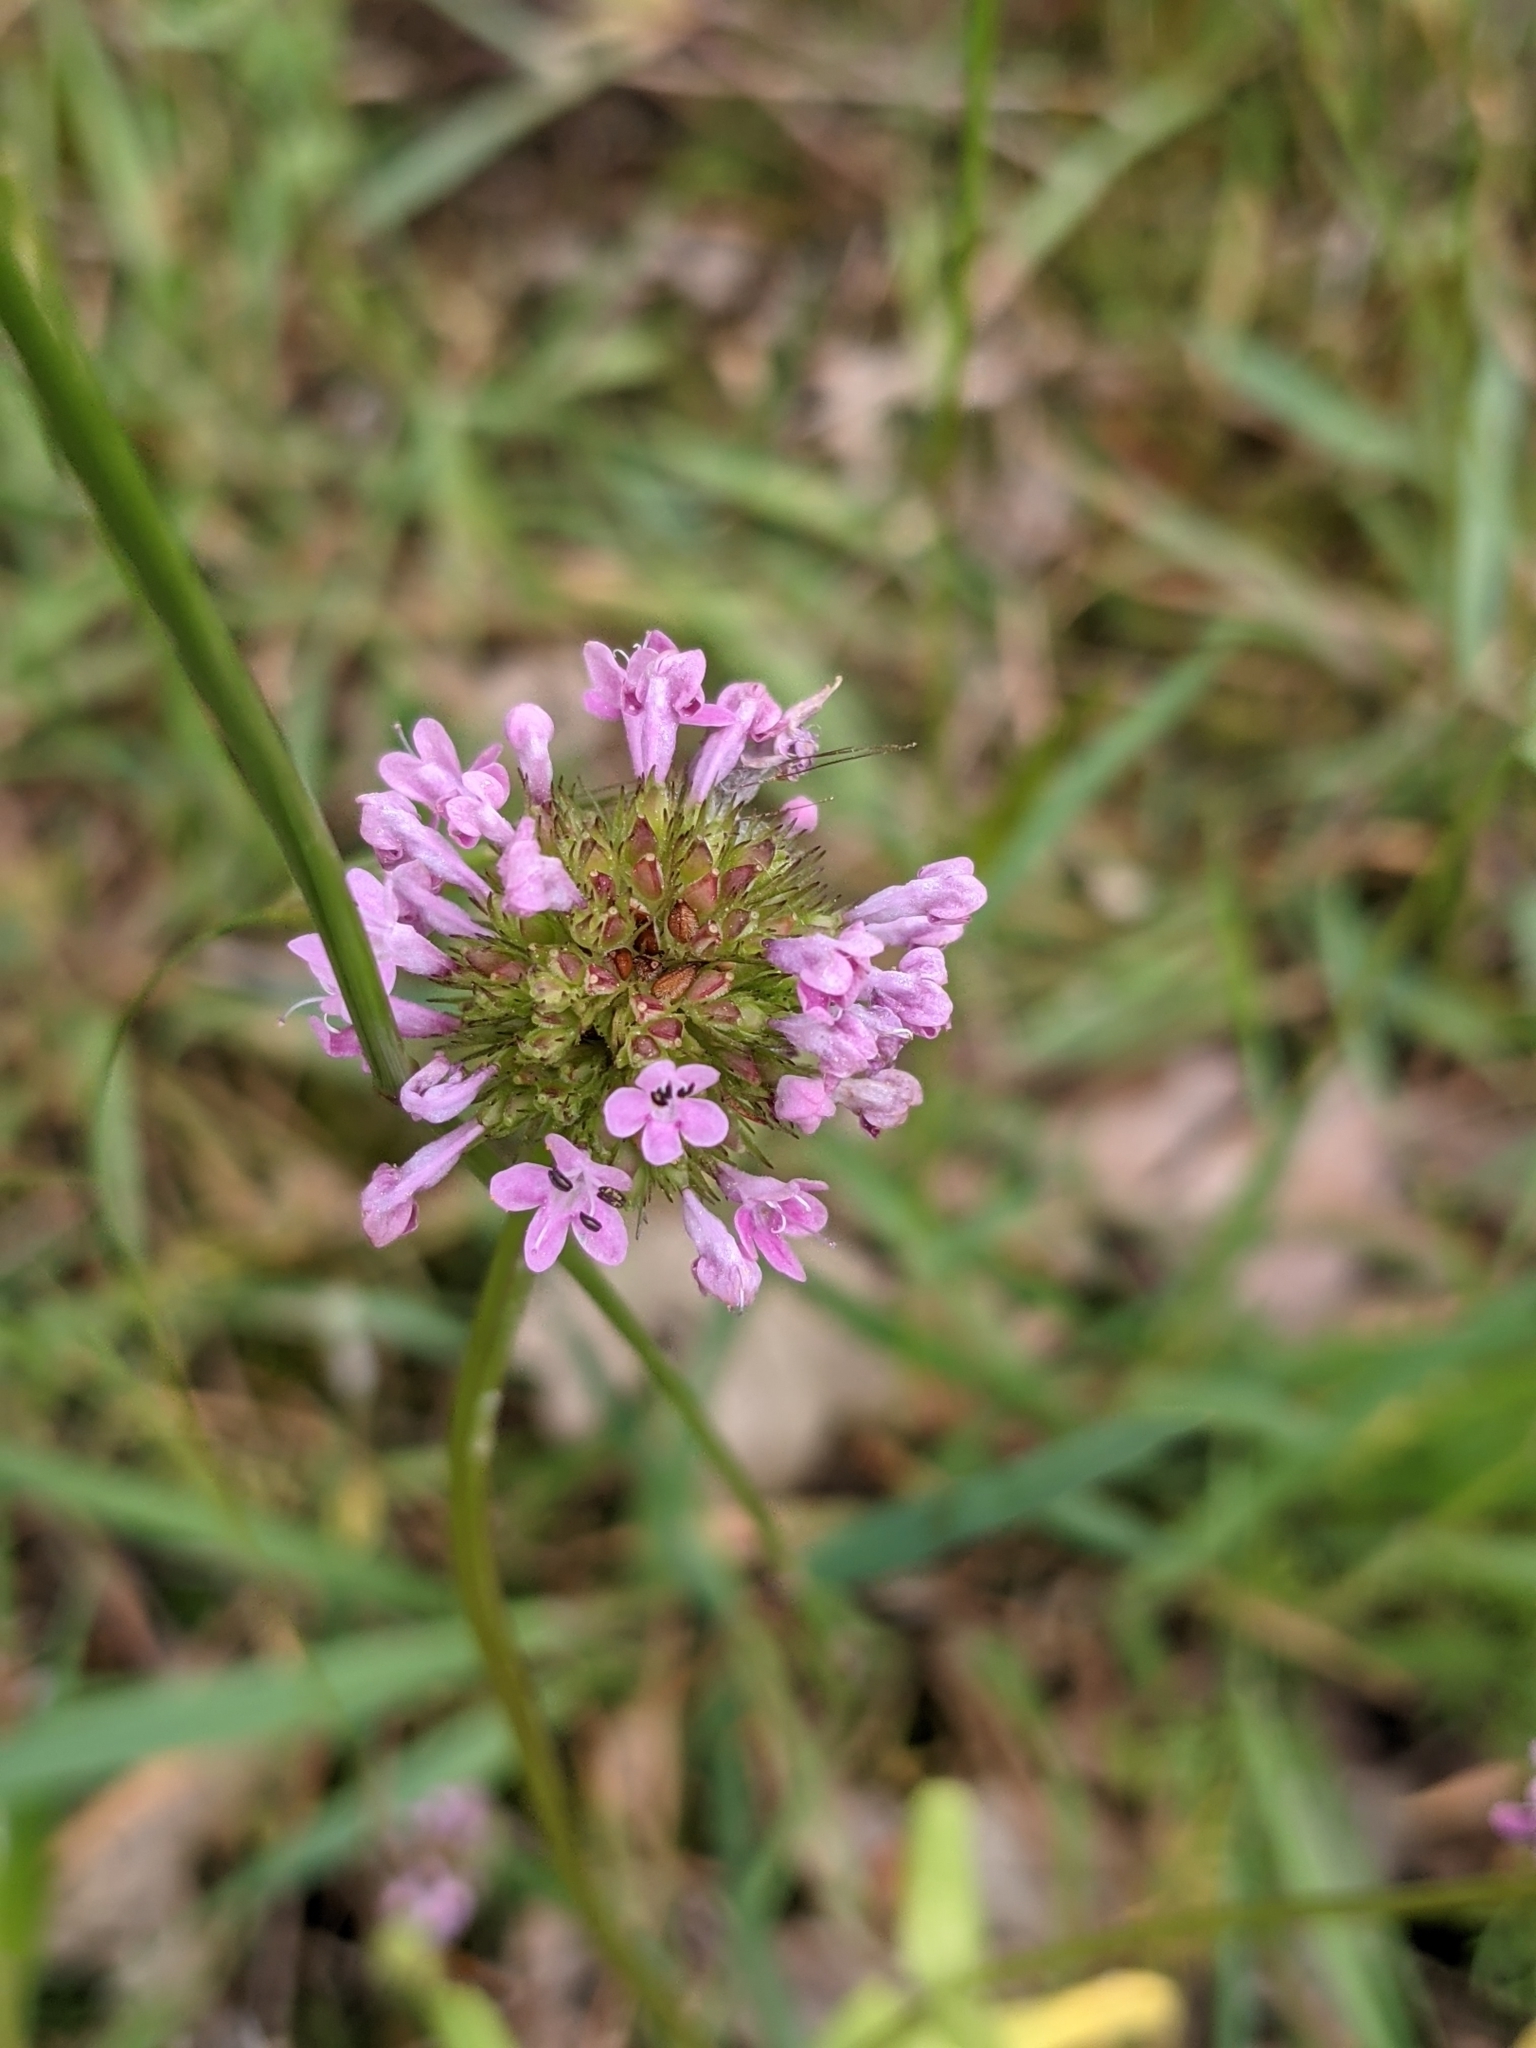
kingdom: Plantae
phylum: Tracheophyta
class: Magnoliopsida
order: Dipsacales
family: Caprifoliaceae
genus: Plectritis
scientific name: Plectritis congesta
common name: Pink plectritis
